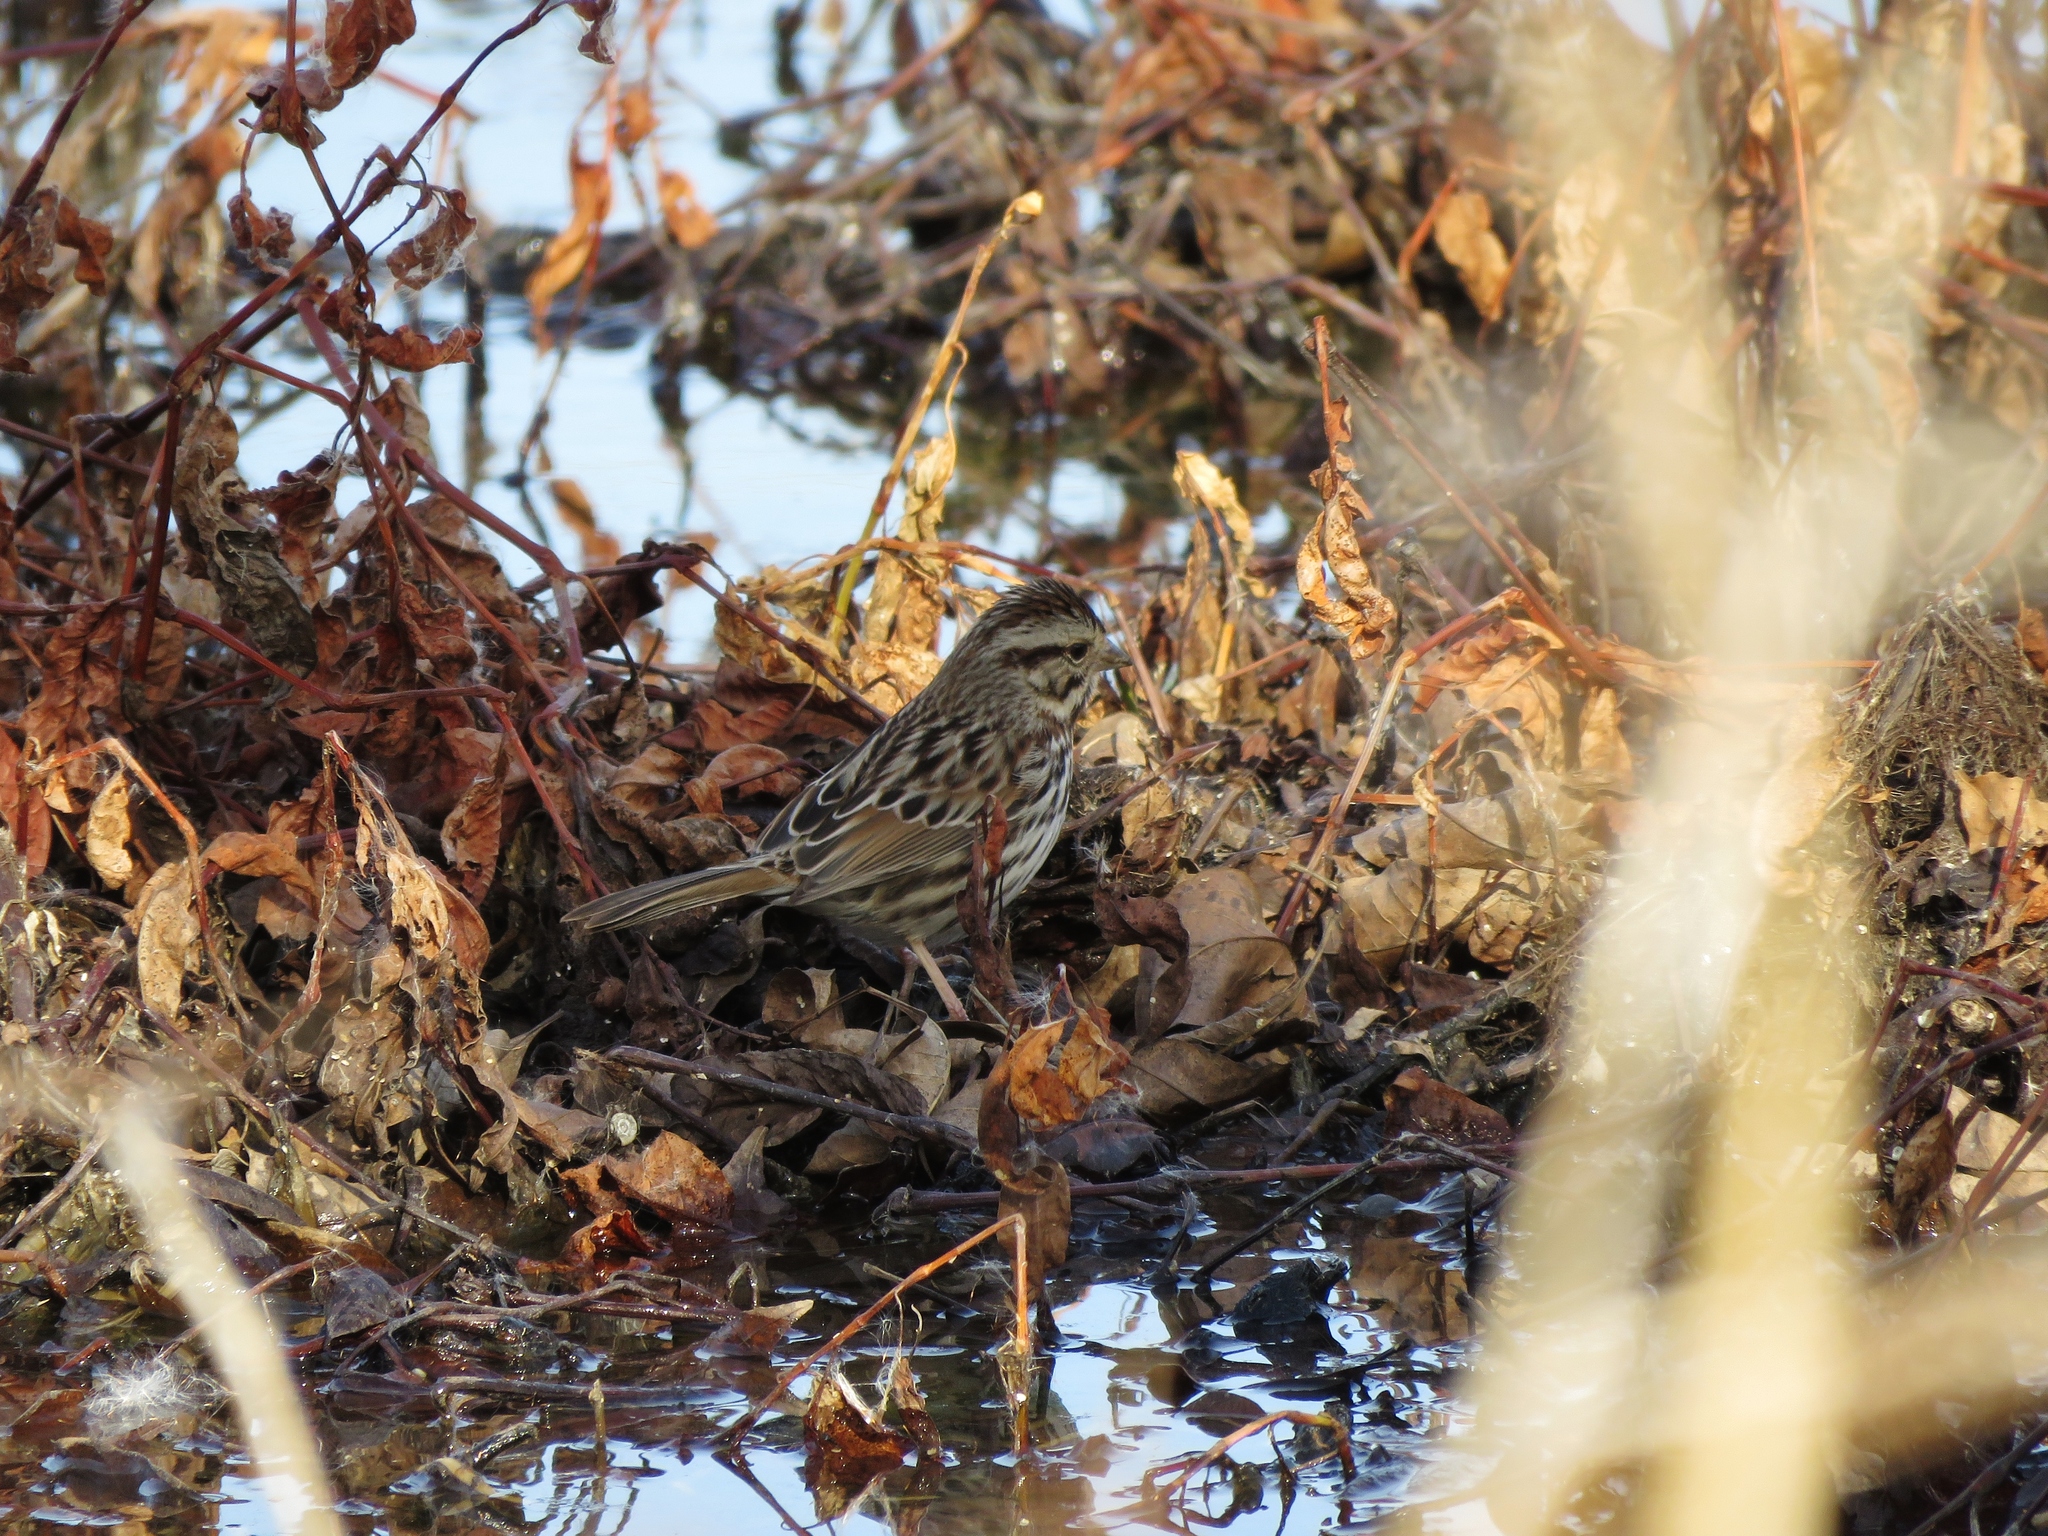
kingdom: Animalia
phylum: Chordata
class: Aves
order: Passeriformes
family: Passerellidae
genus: Melospiza
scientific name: Melospiza melodia
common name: Song sparrow
